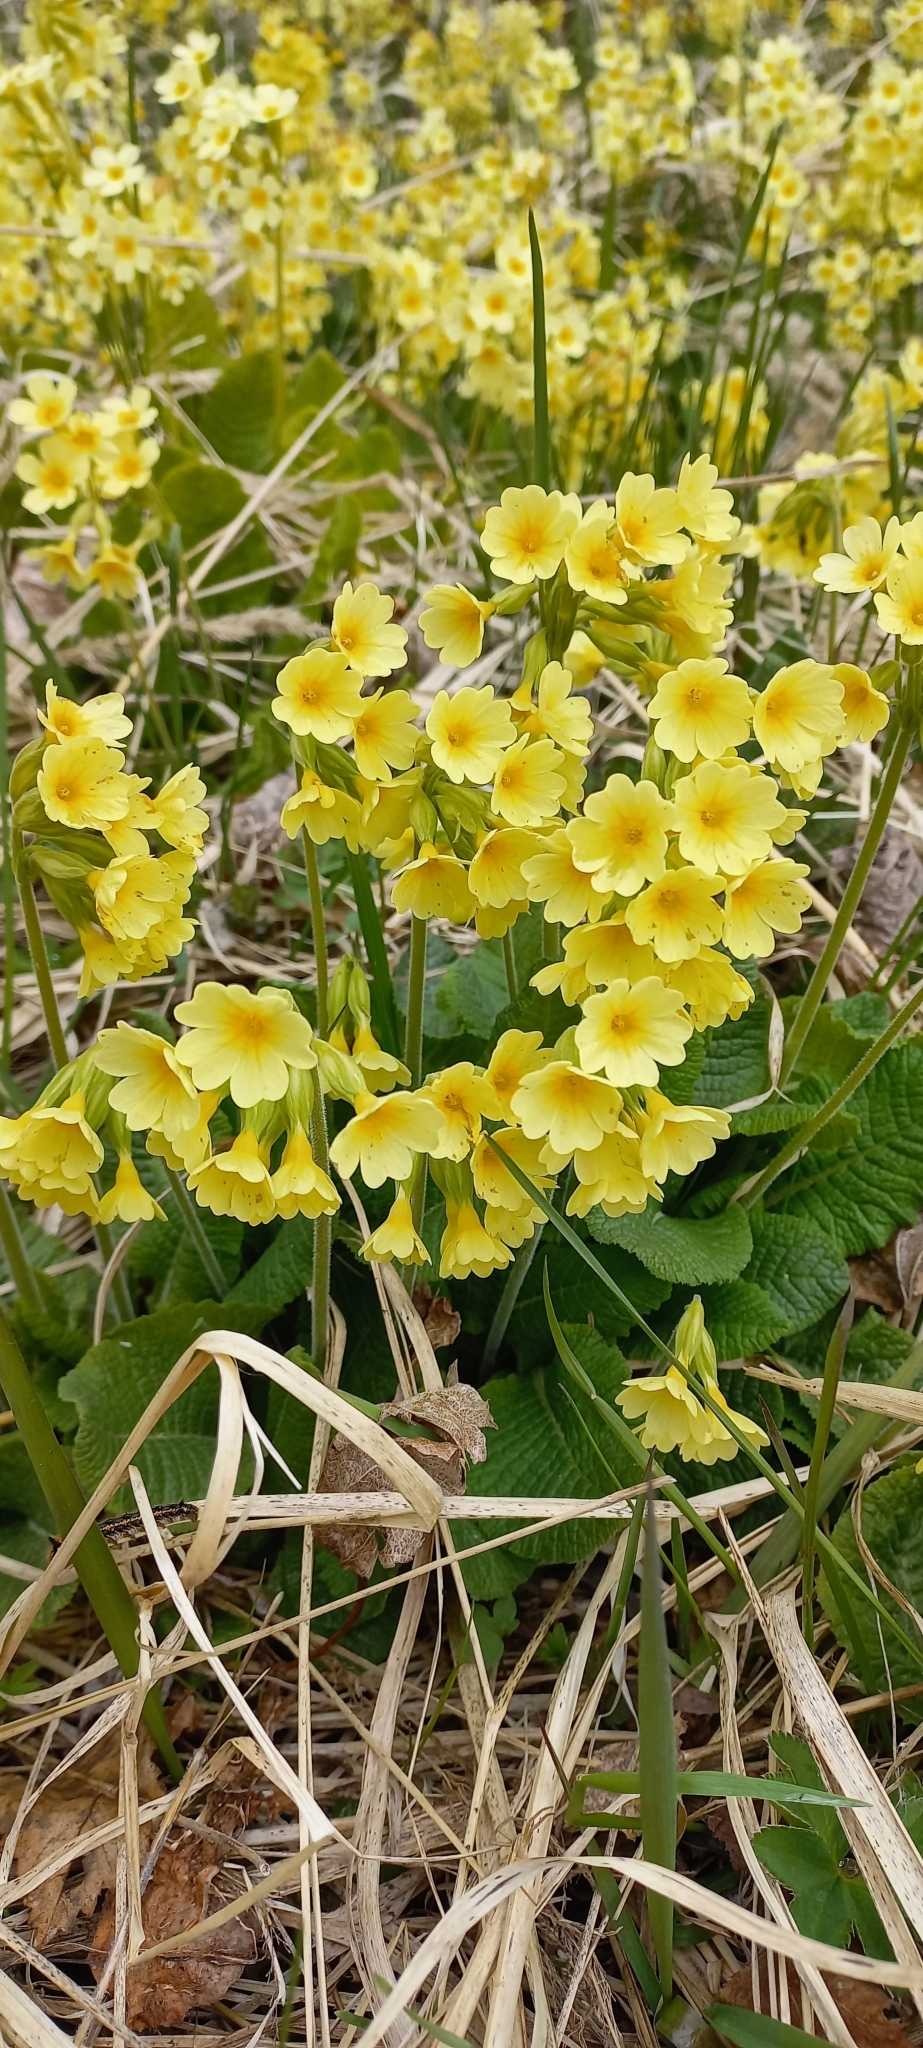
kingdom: Plantae
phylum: Tracheophyta
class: Magnoliopsida
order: Ericales
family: Primulaceae
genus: Primula
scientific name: Primula elatior
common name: Oxlip
